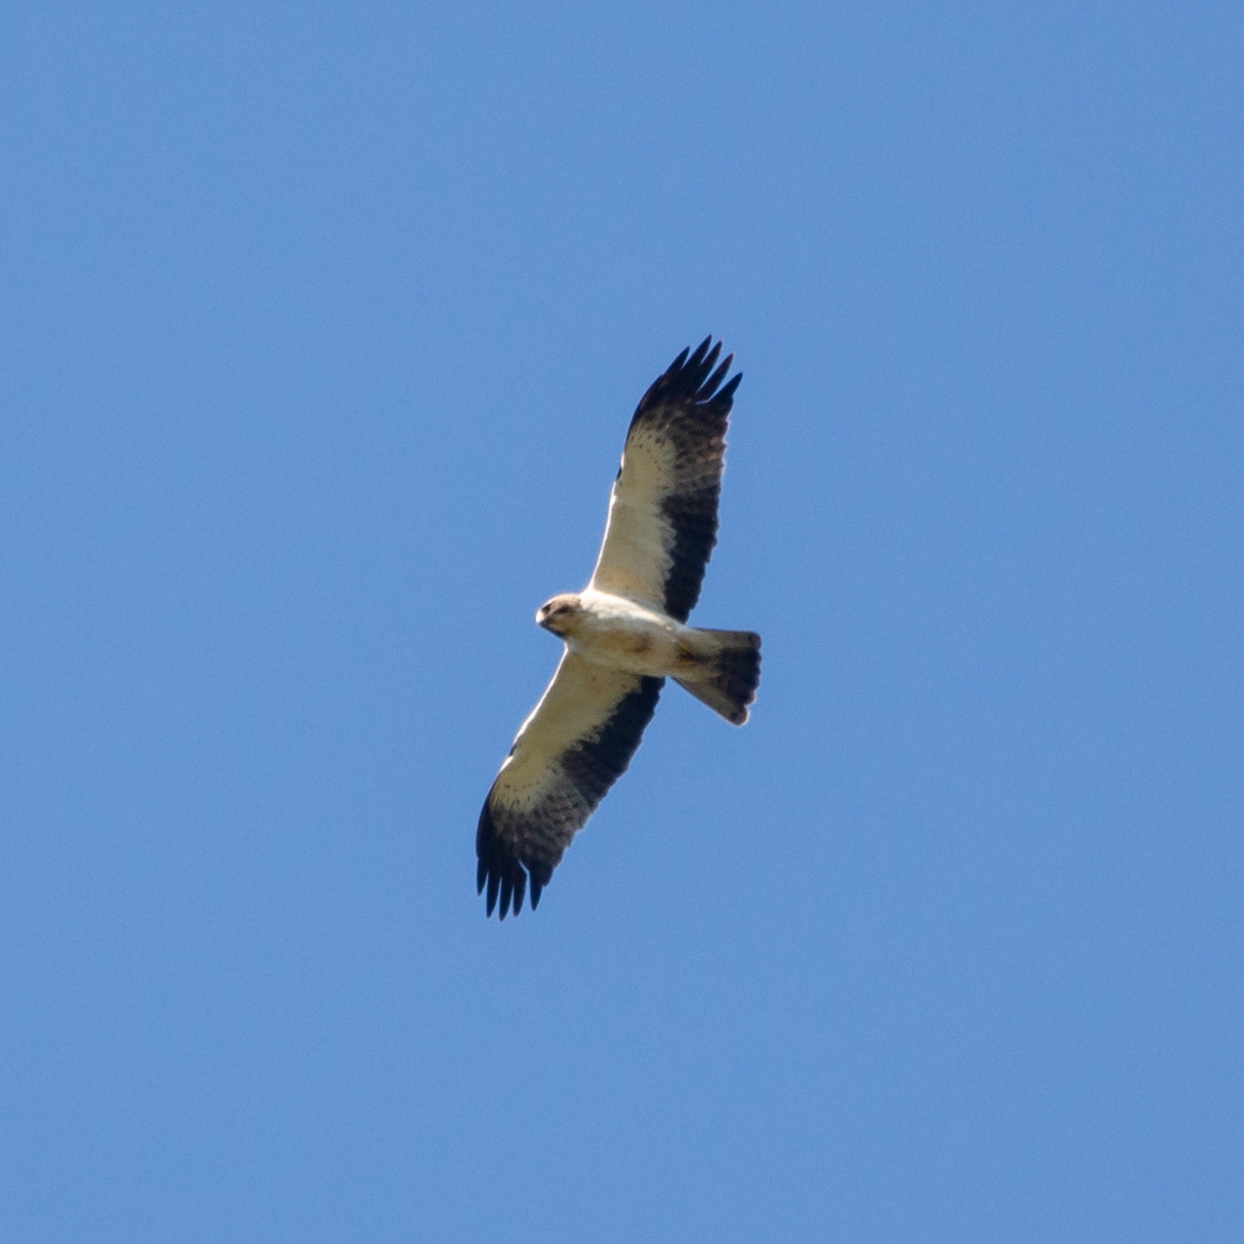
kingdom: Animalia
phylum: Chordata
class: Aves
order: Accipitriformes
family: Accipitridae
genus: Hieraaetus
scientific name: Hieraaetus pennatus
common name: Booted eagle
